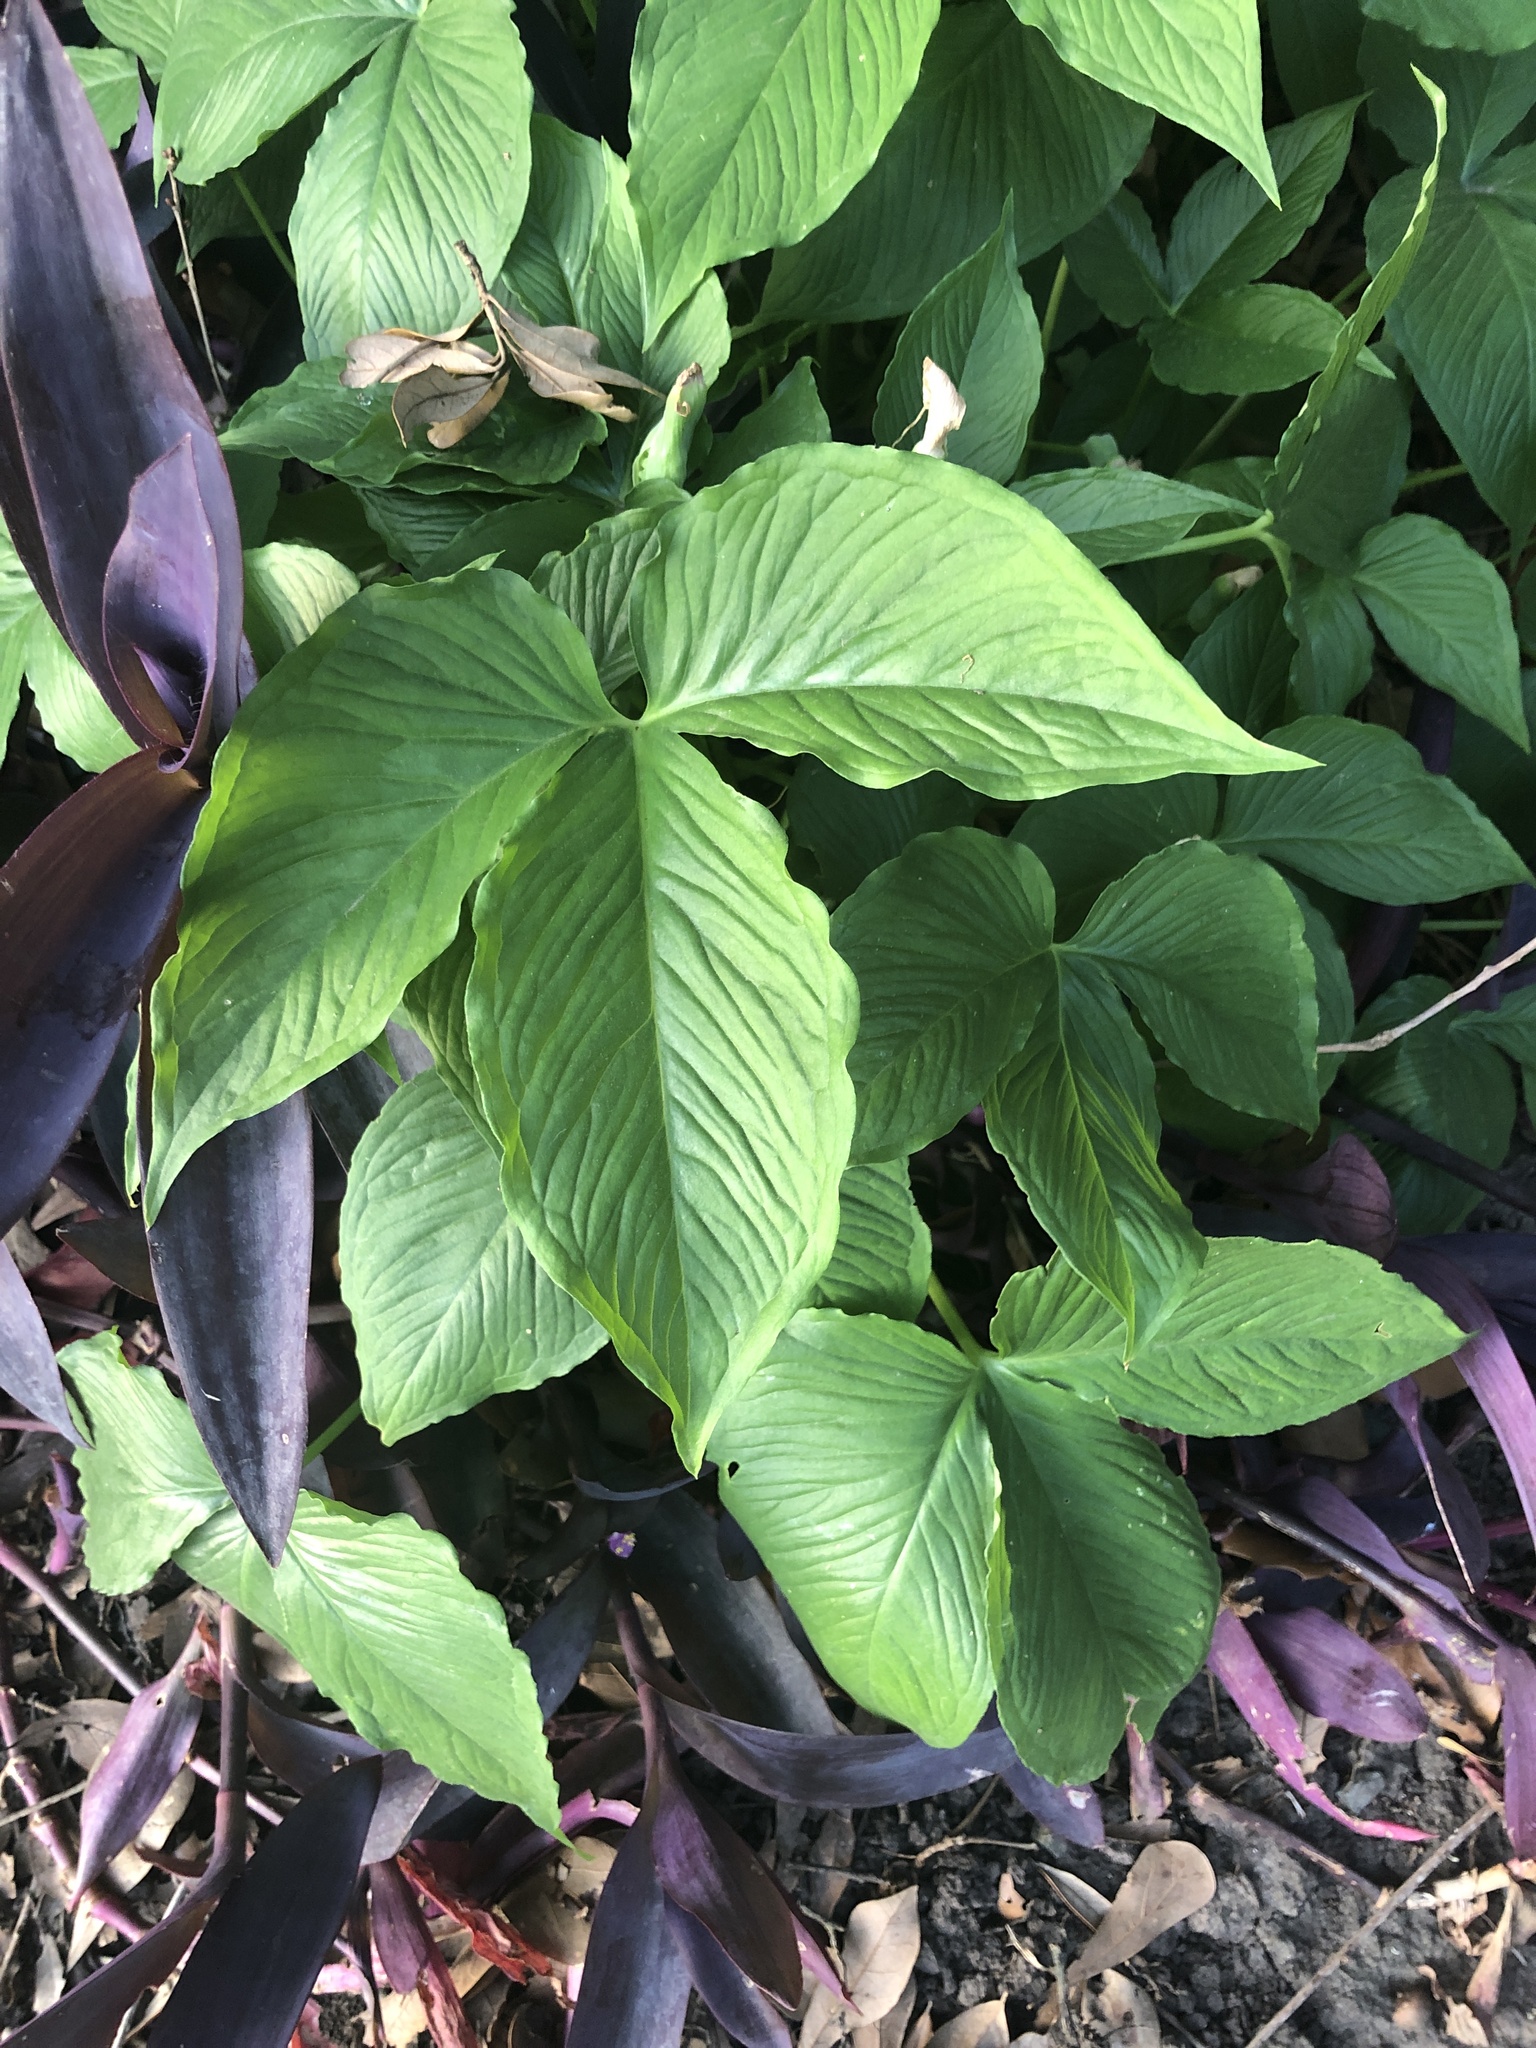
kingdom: Plantae
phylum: Tracheophyta
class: Liliopsida
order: Alismatales
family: Araceae
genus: Syngonium
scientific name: Syngonium podophyllum
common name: American evergreen
